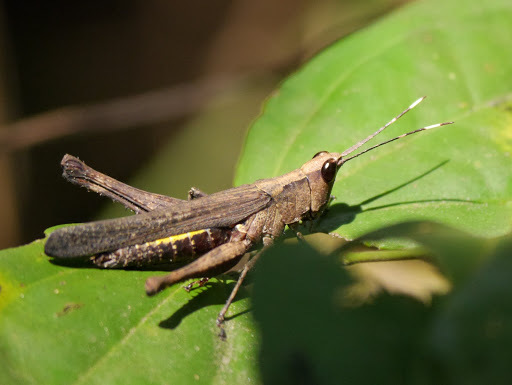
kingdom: Animalia
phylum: Arthropoda
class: Insecta
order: Orthoptera
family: Acrididae
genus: Holopercna
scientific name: Holopercna gerstaeckerii
